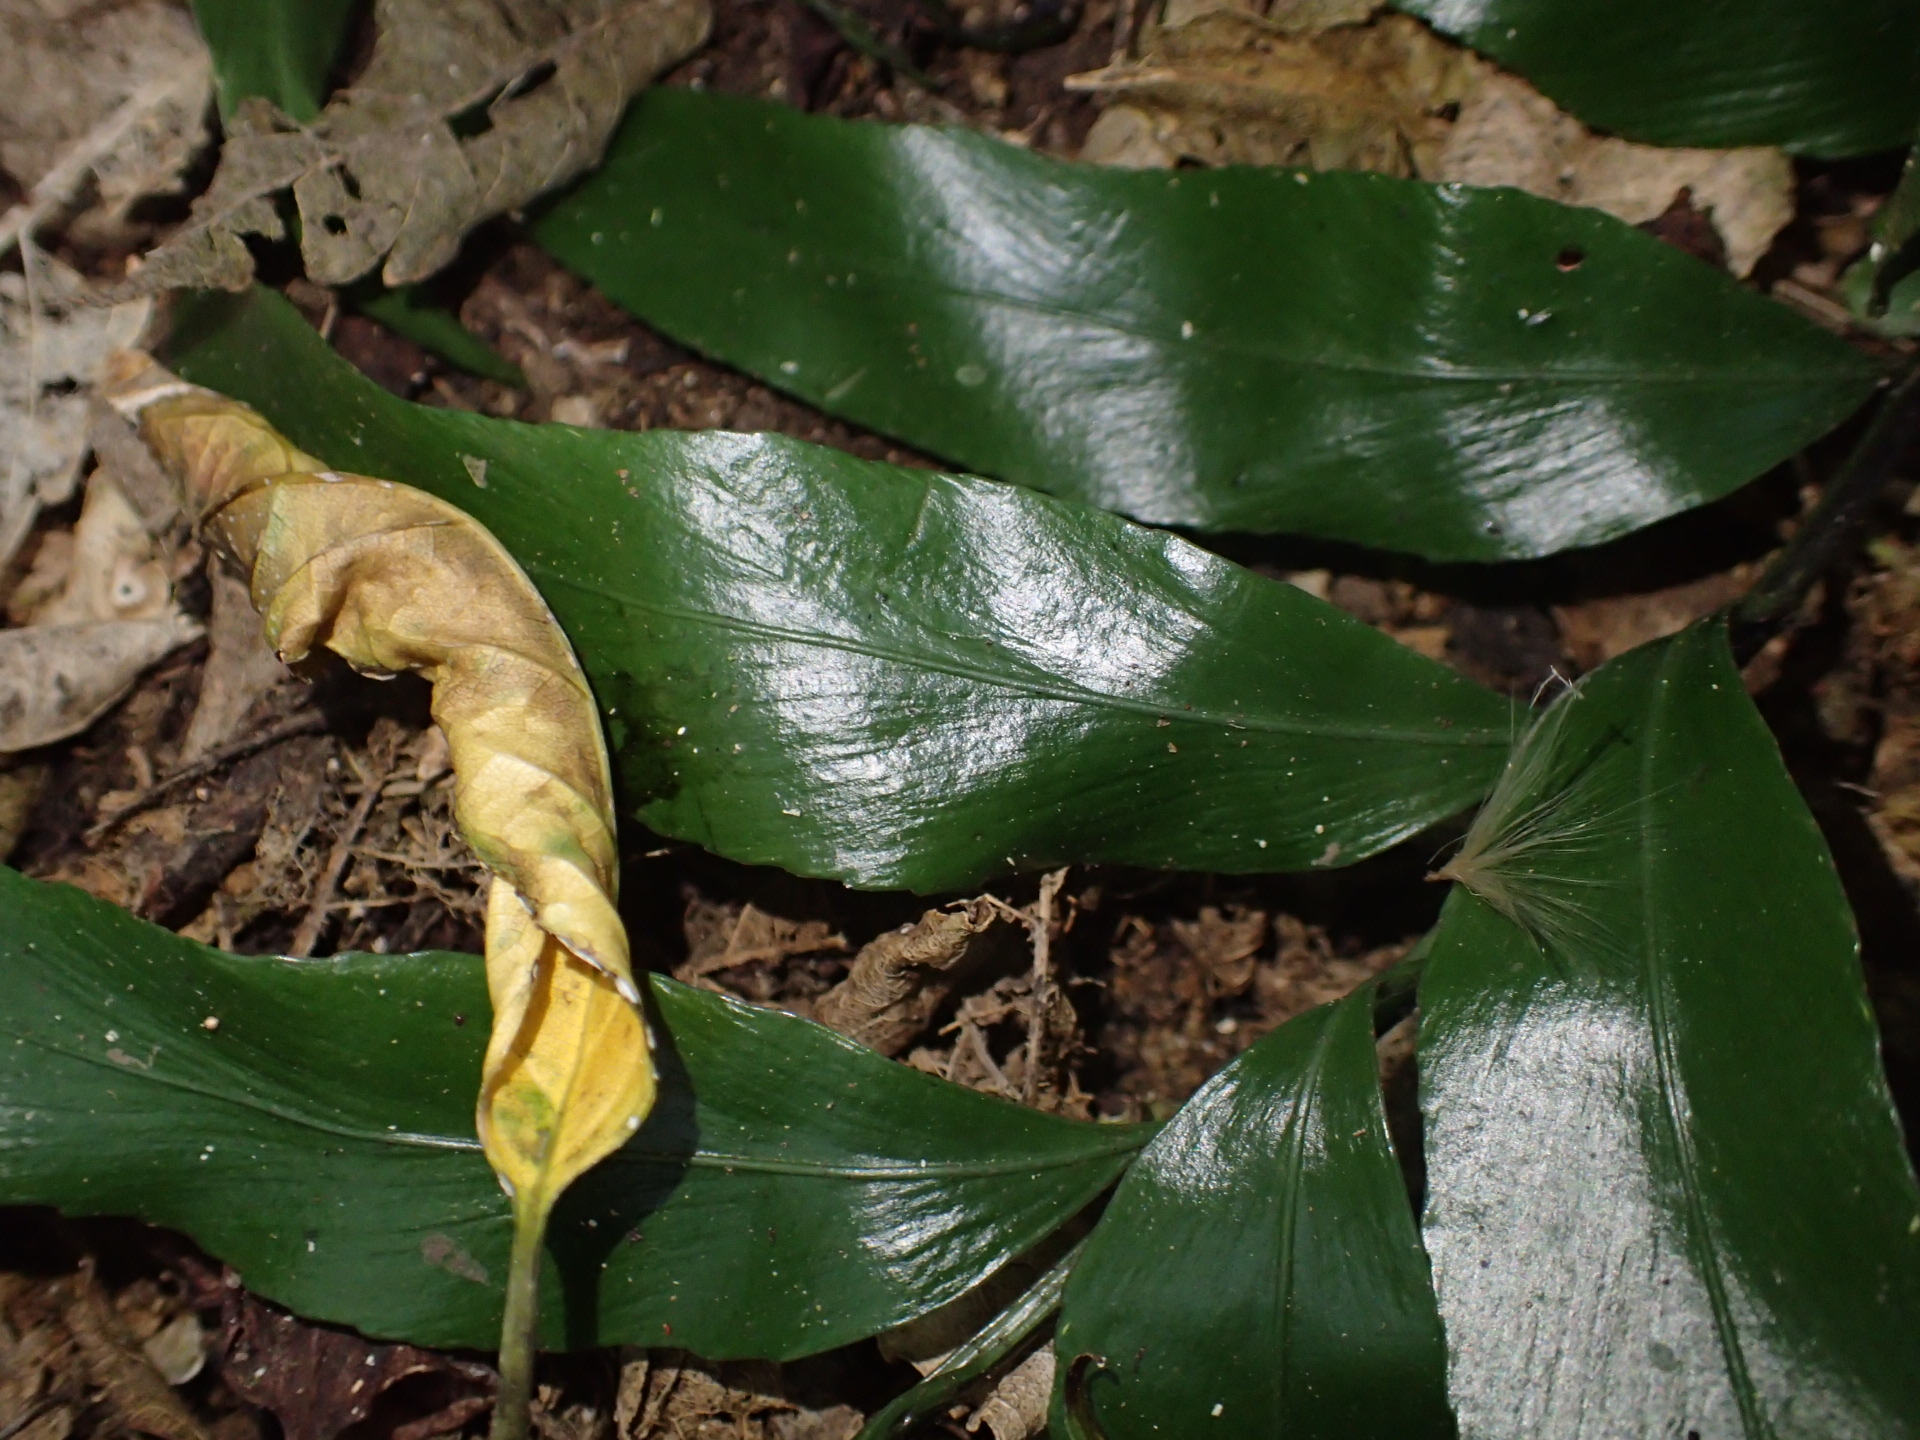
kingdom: Plantae
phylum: Tracheophyta
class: Polypodiopsida
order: Polypodiales
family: Aspleniaceae
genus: Asplenium
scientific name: Asplenium oblongifolium
